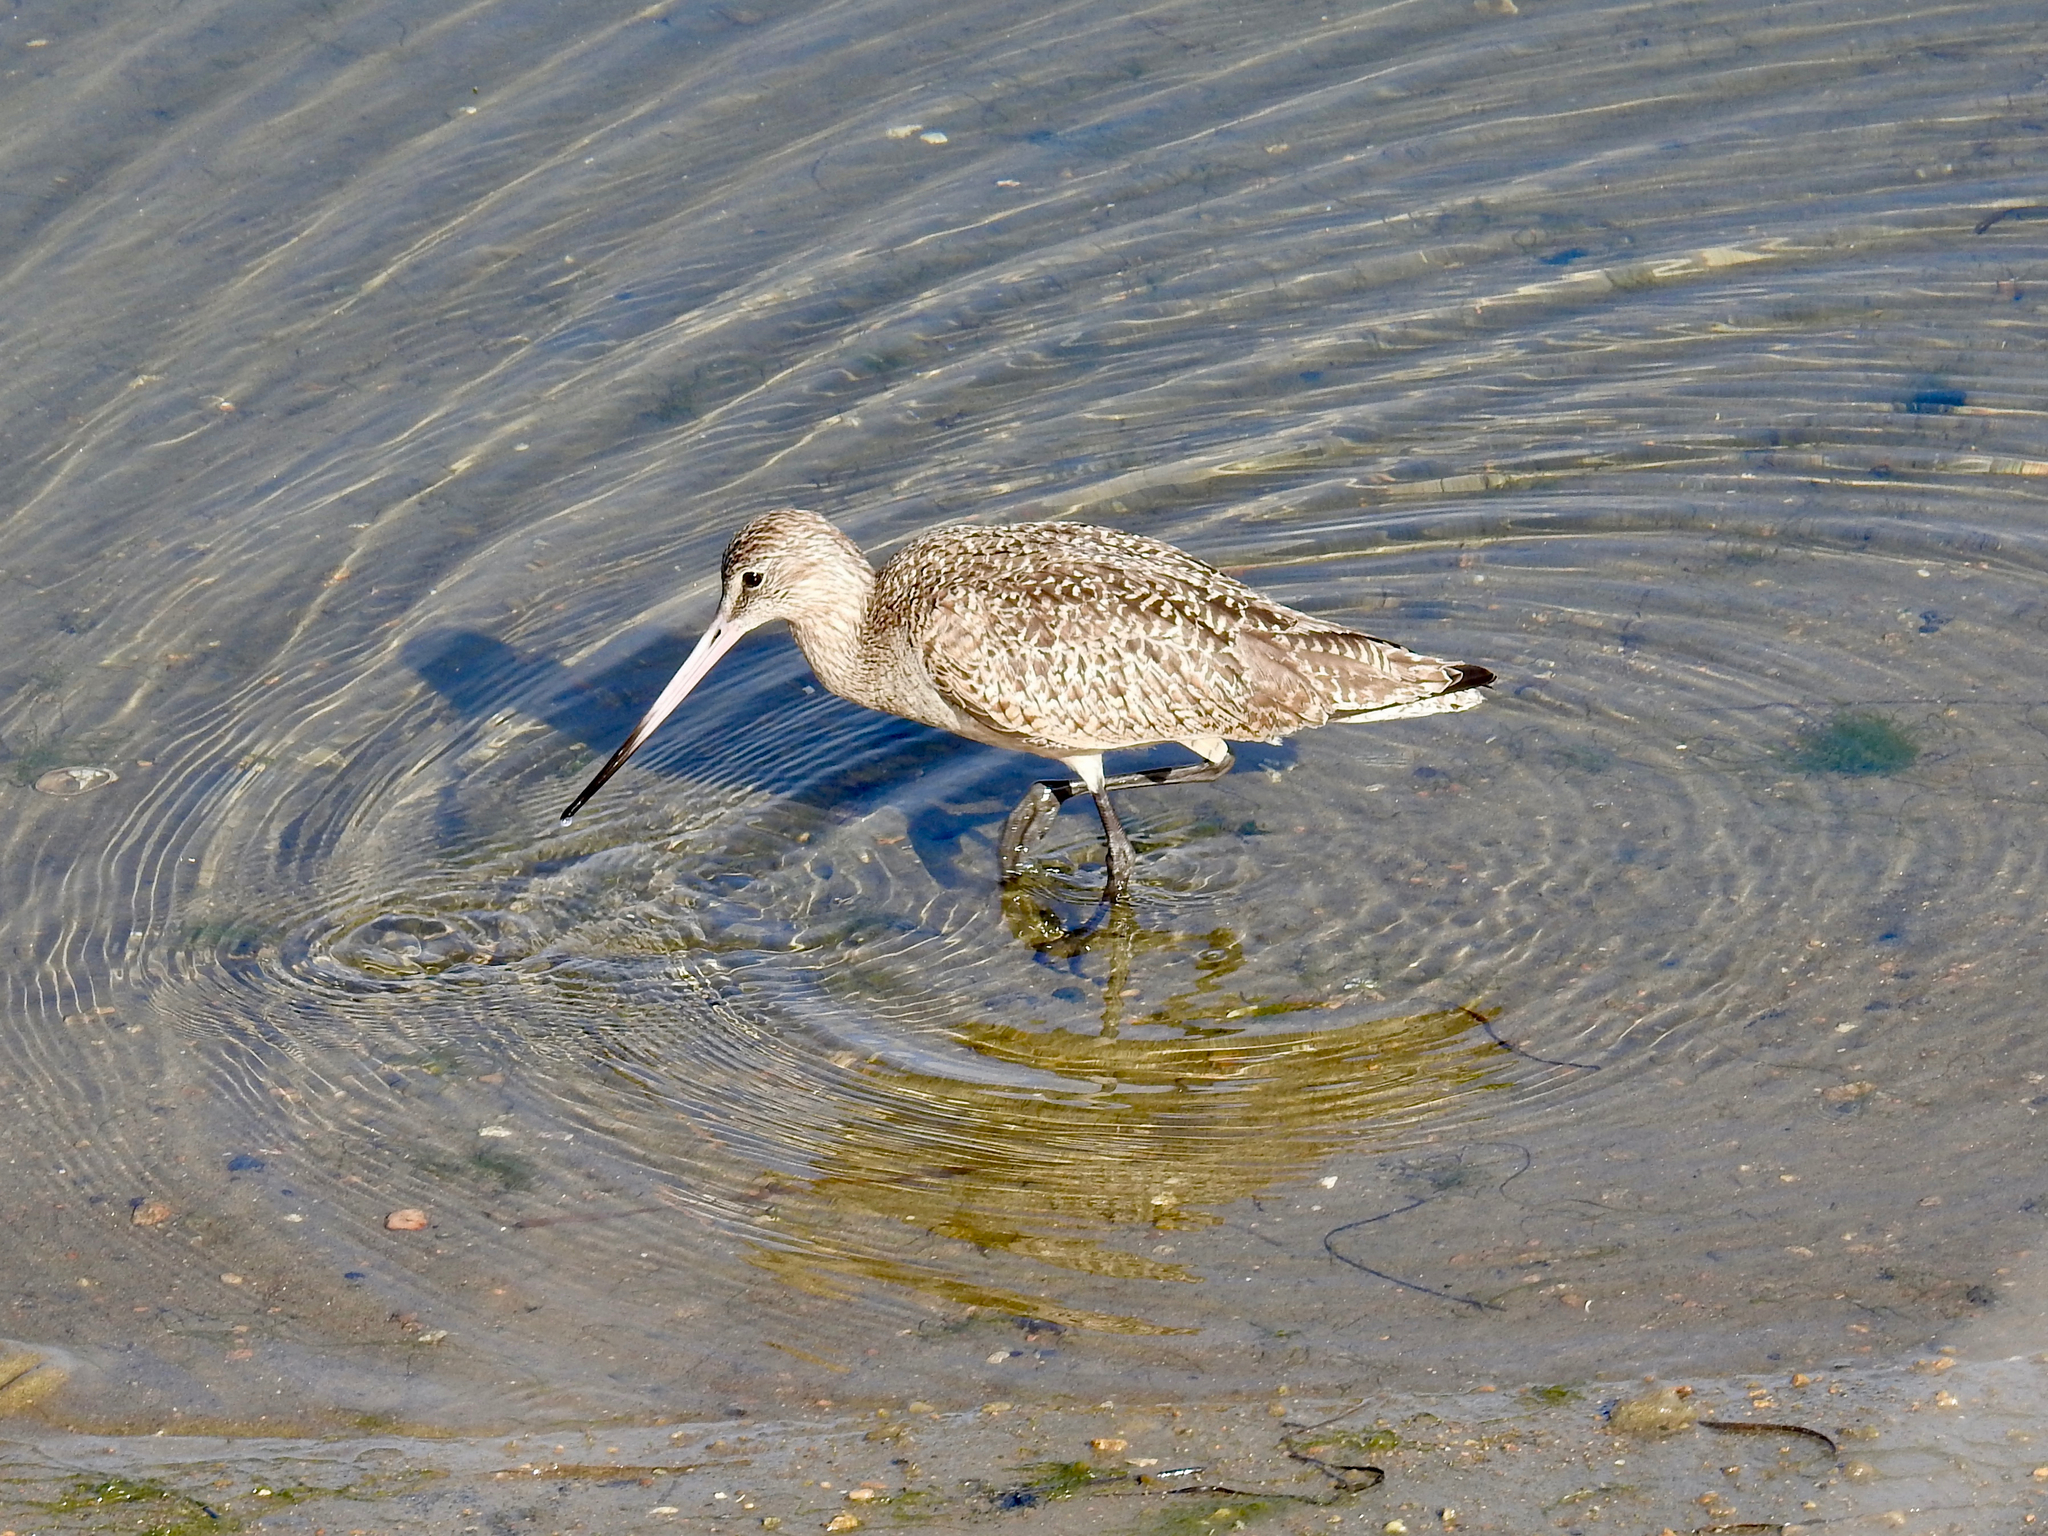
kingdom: Animalia
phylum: Chordata
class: Aves
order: Charadriiformes
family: Scolopacidae
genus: Limosa
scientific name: Limosa fedoa
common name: Marbled godwit
